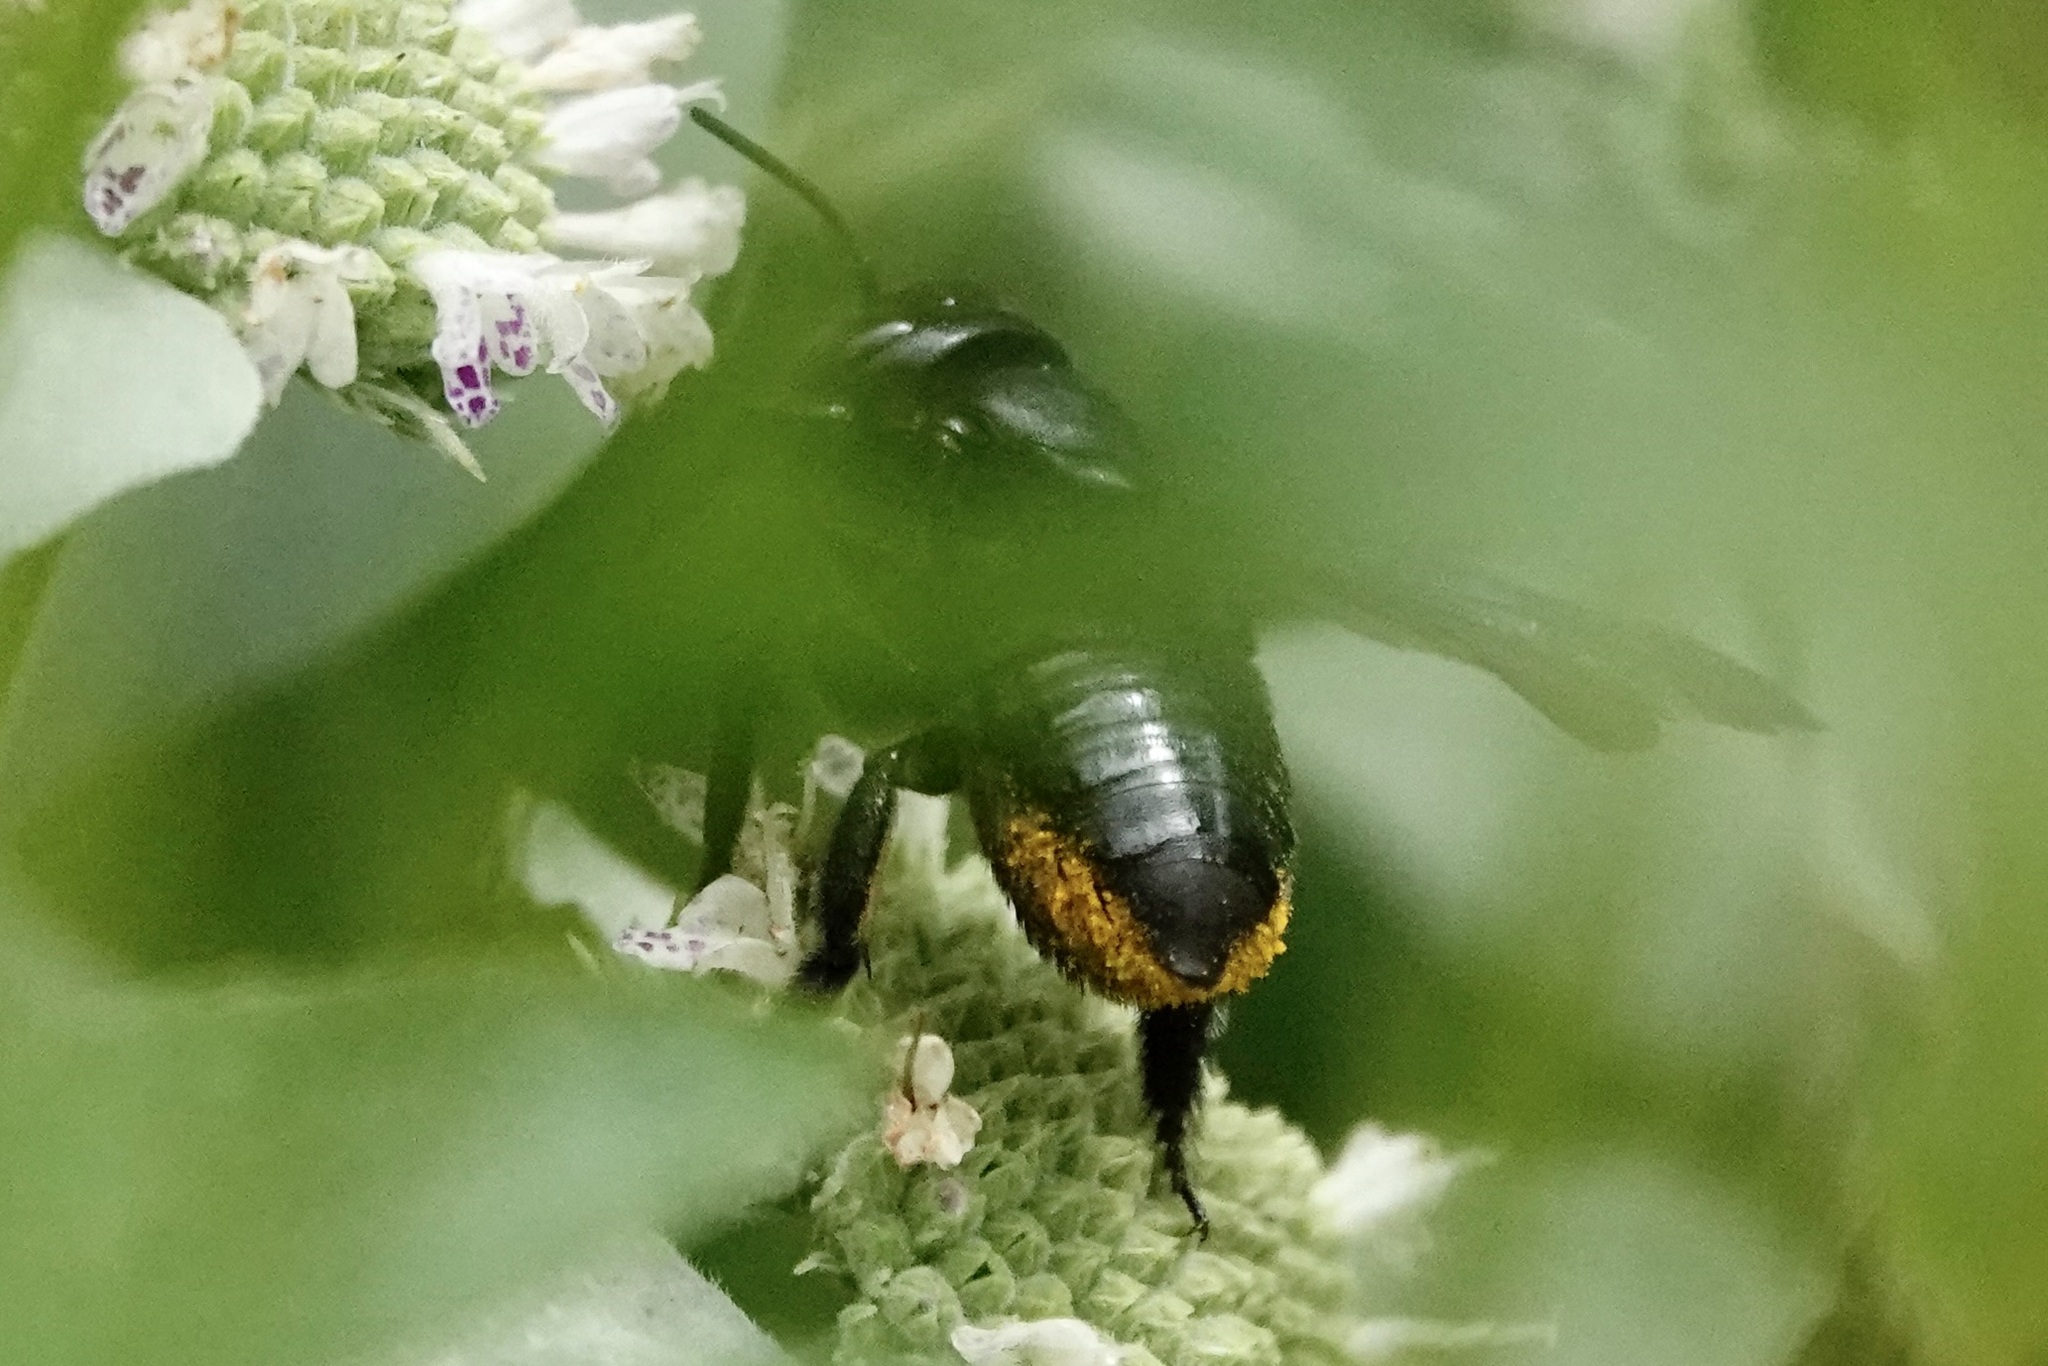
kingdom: Animalia
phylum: Arthropoda
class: Insecta
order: Hymenoptera
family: Megachilidae
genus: Megachile
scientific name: Megachile xylocopoides
